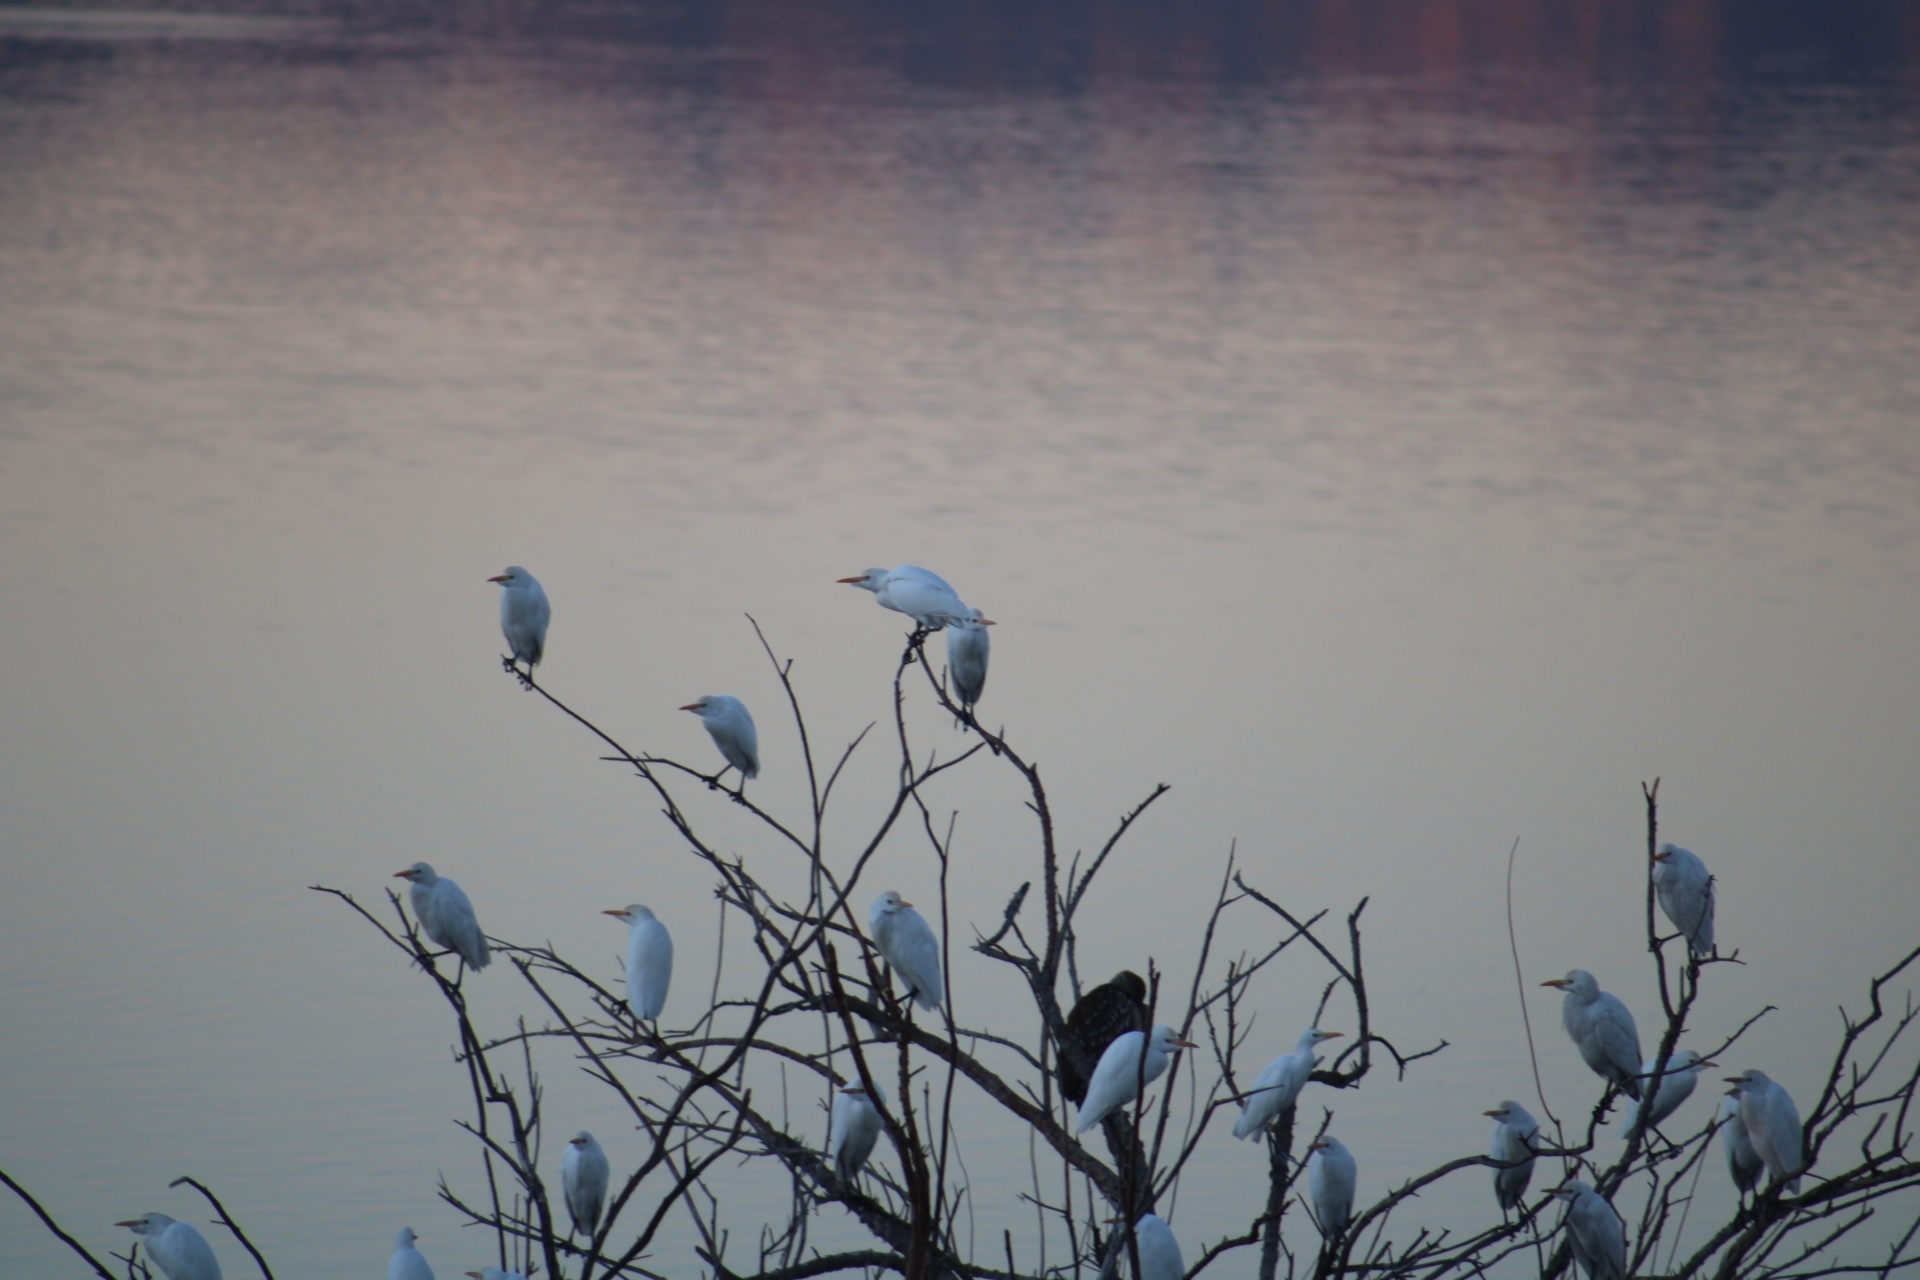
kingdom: Animalia
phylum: Chordata
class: Aves
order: Pelecaniformes
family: Ardeidae
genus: Bubulcus
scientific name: Bubulcus ibis
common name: Cattle egret
